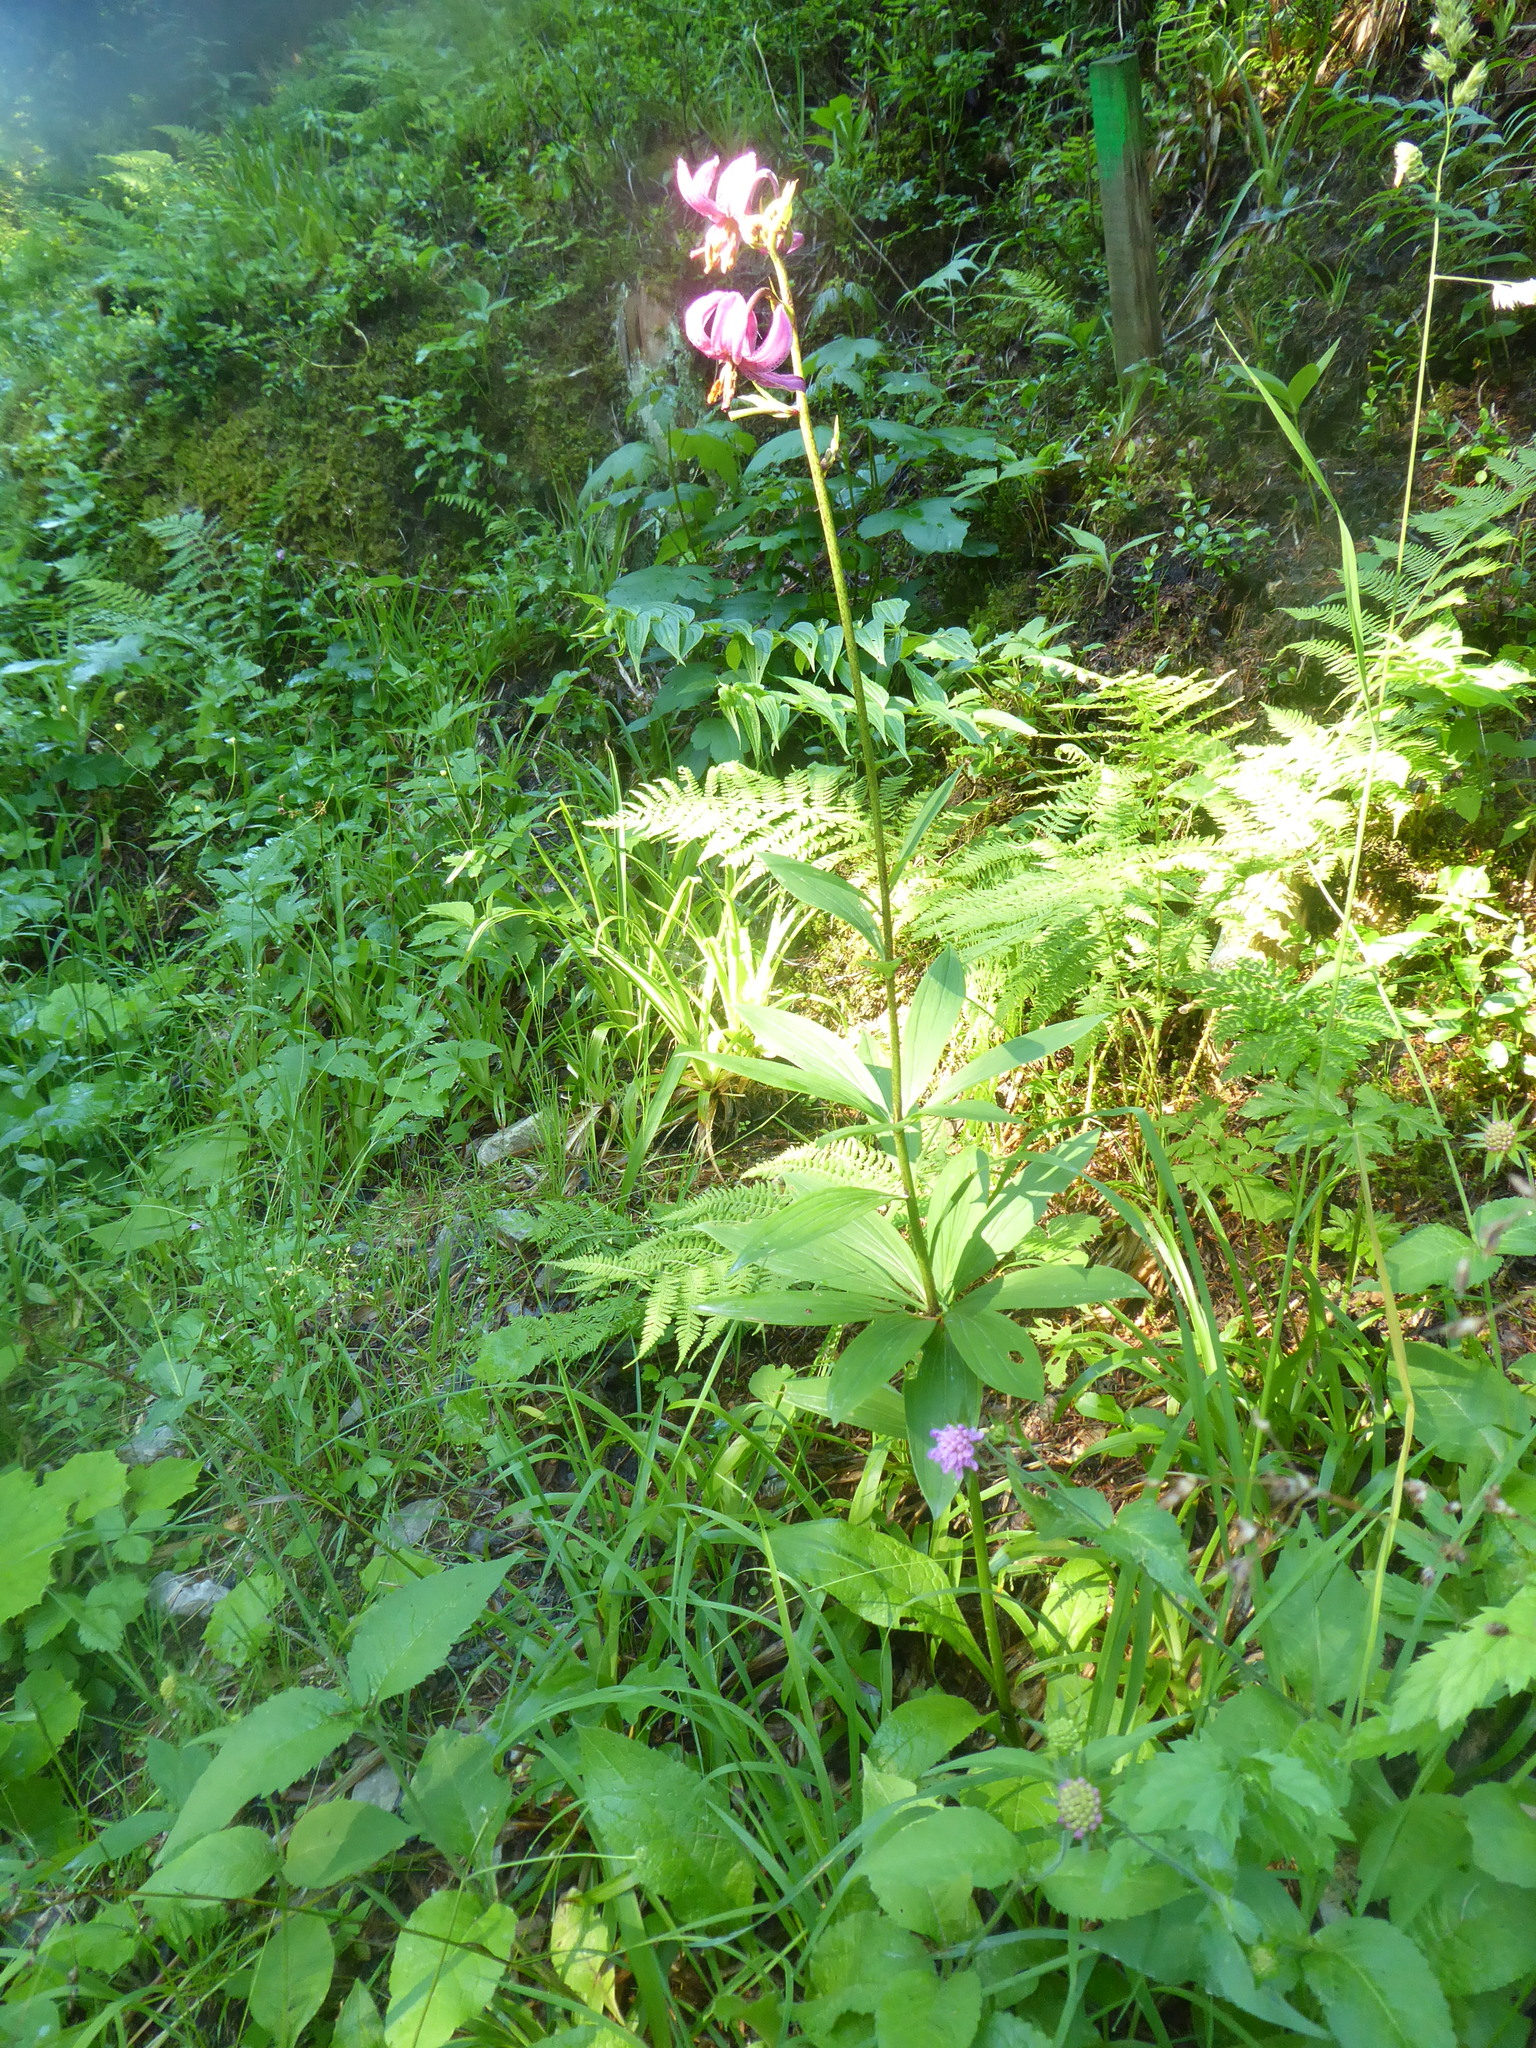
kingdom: Plantae
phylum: Tracheophyta
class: Liliopsida
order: Liliales
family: Liliaceae
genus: Lilium
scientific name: Lilium martagon
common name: Martagon lily
